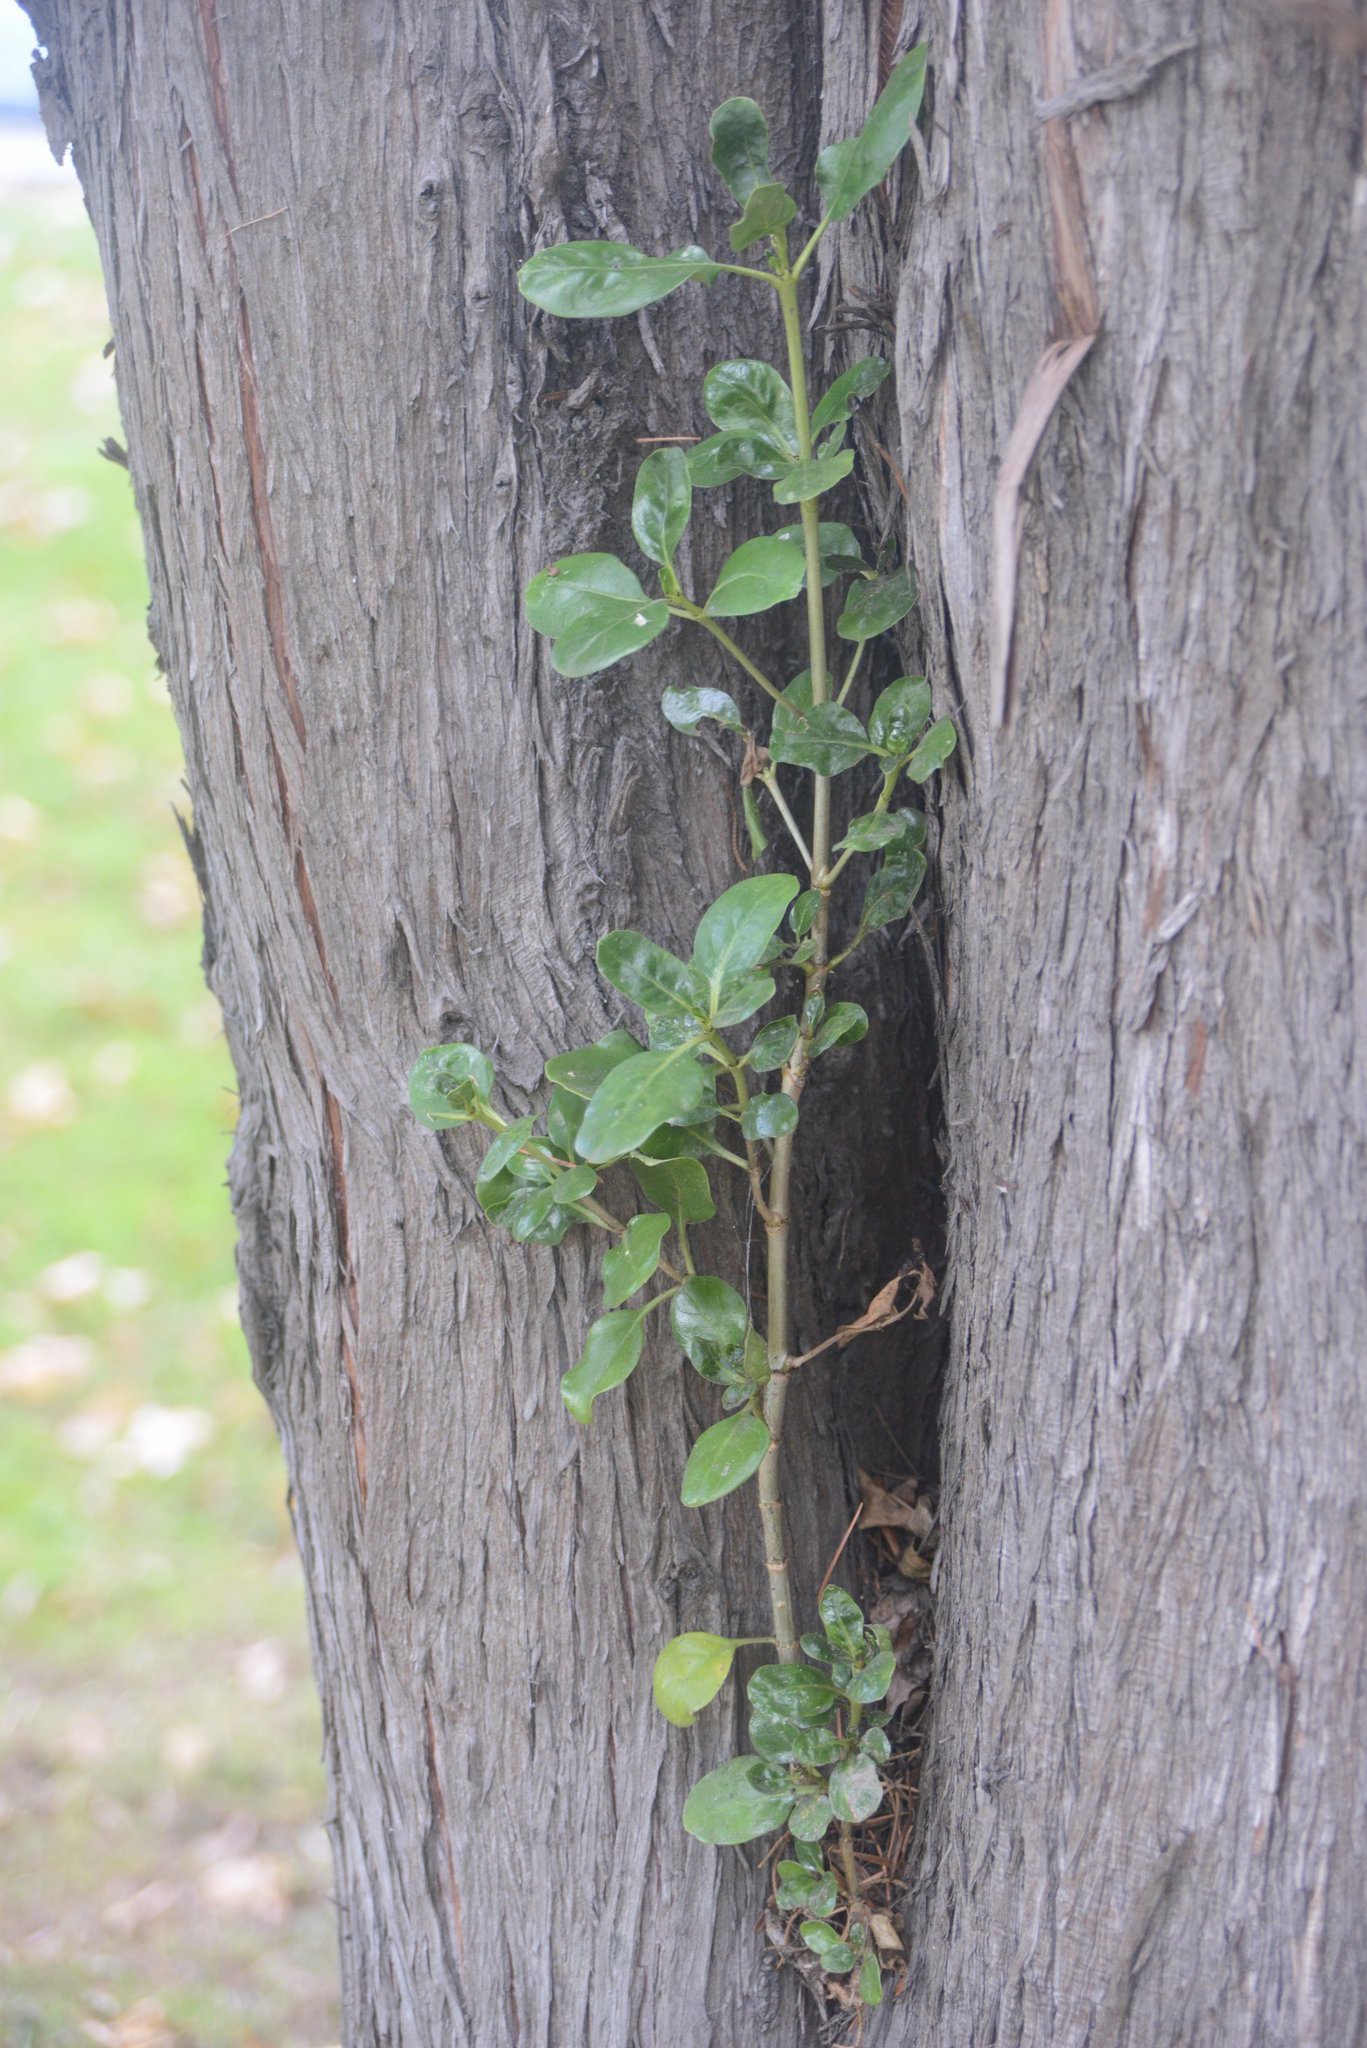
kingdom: Plantae
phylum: Tracheophyta
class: Magnoliopsida
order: Gentianales
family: Rubiaceae
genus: Coprosma
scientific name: Coprosma repens
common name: Tree bedstraw
